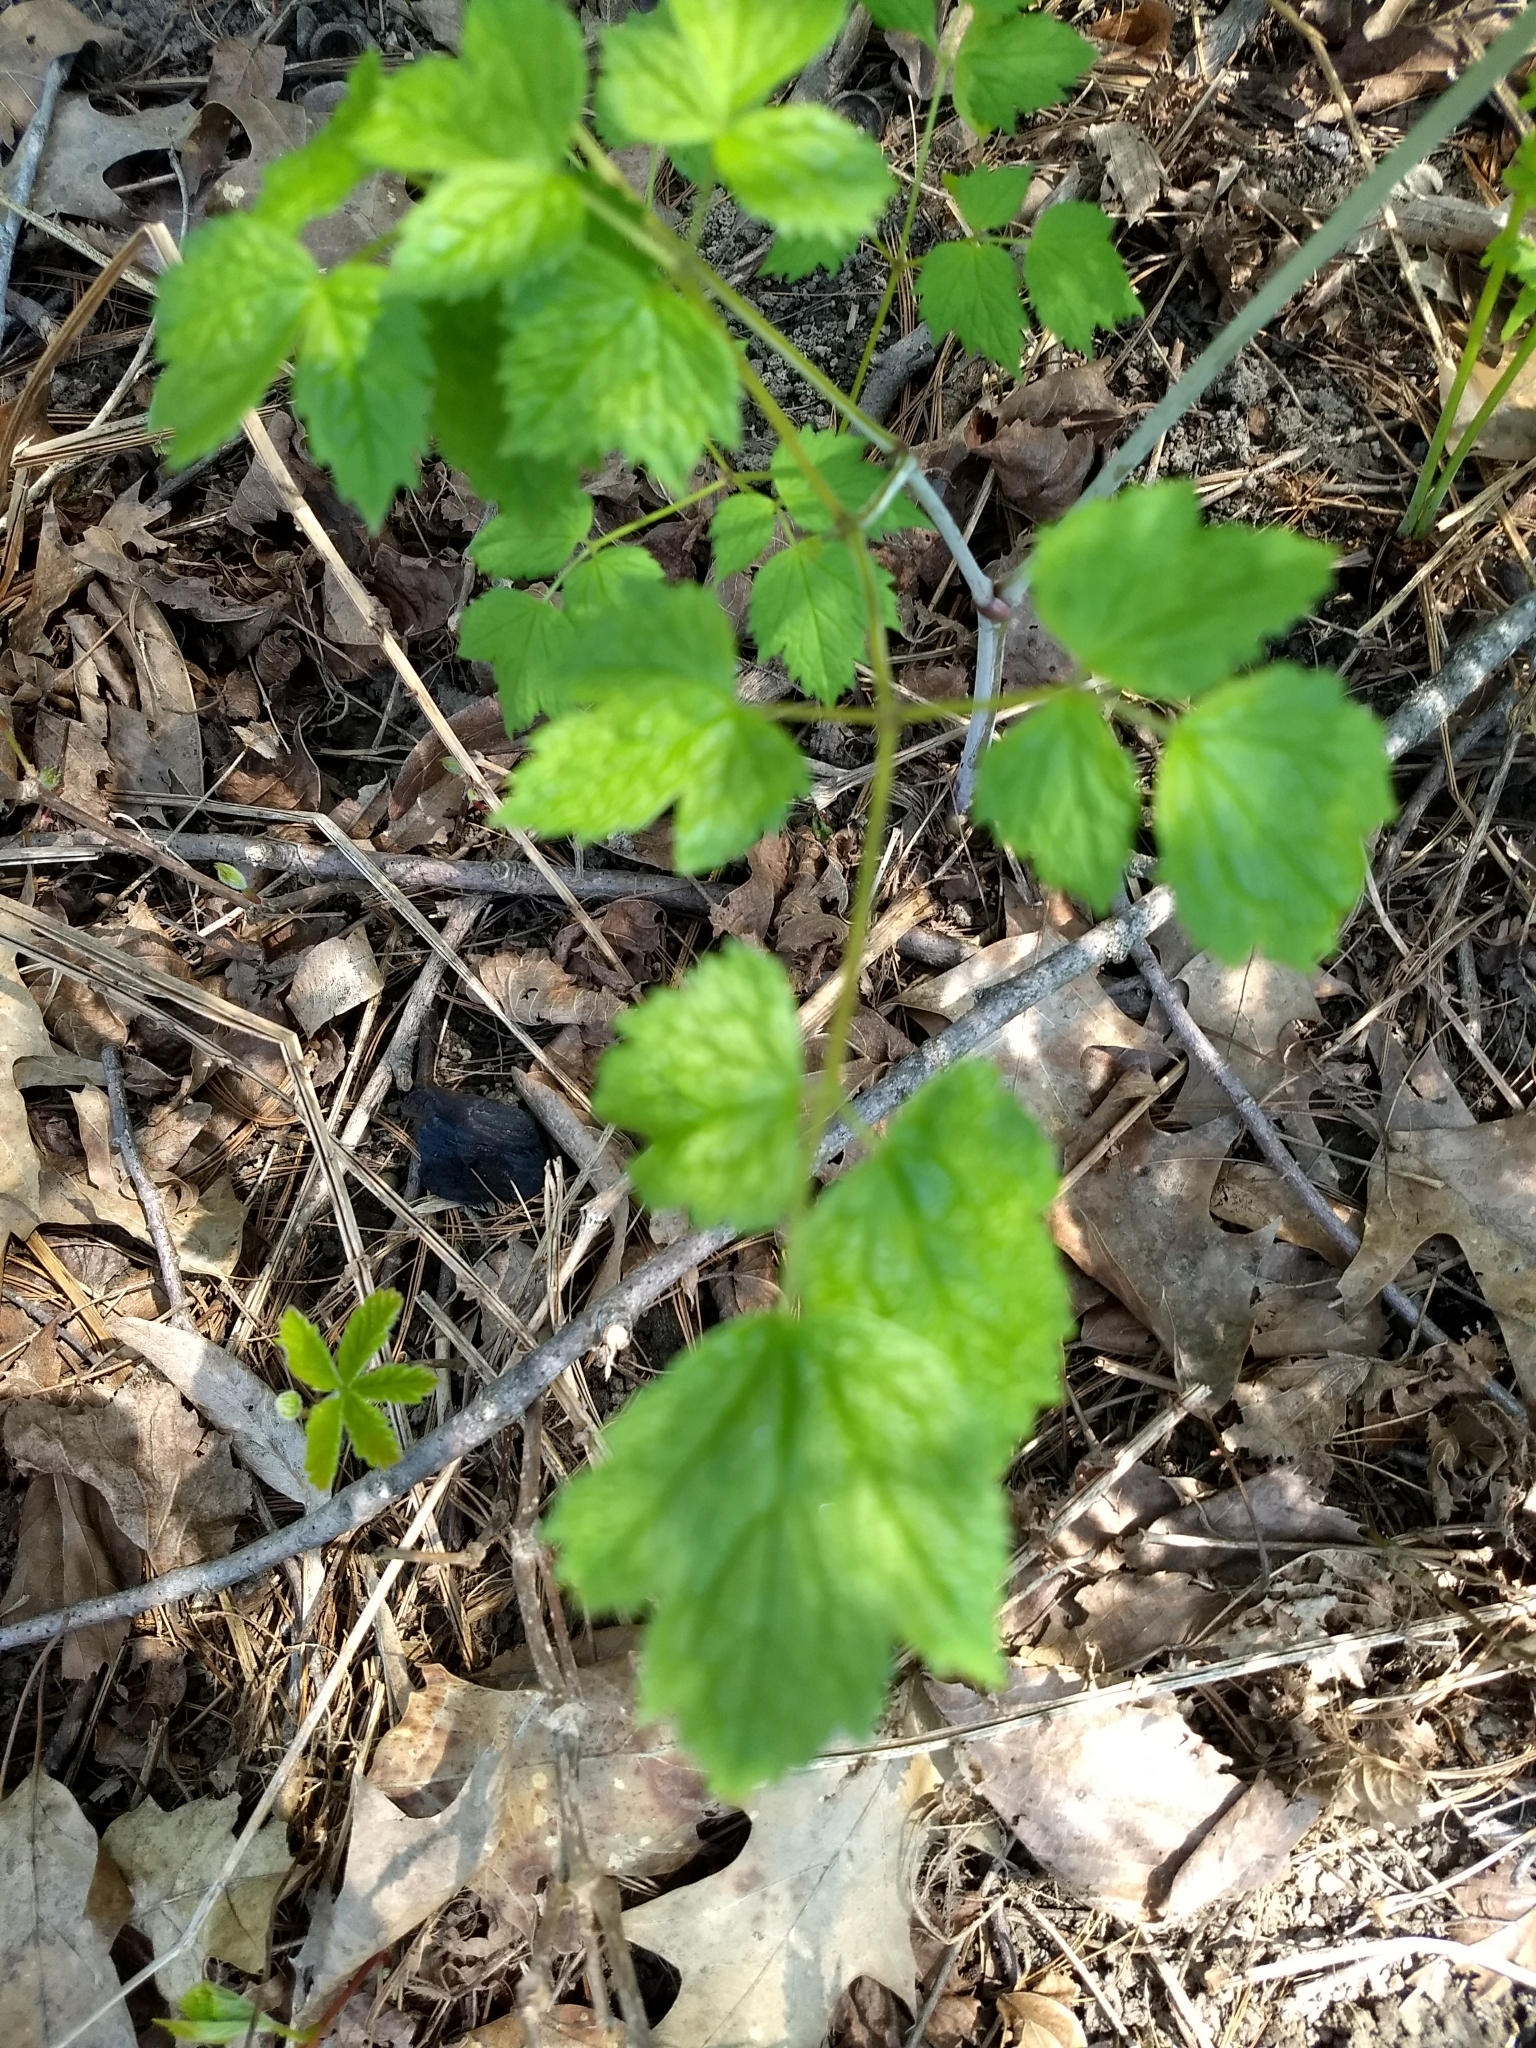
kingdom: Plantae
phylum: Tracheophyta
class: Magnoliopsida
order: Ranunculales
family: Ranunculaceae
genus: Actaea
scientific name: Actaea rubra
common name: Red baneberry
